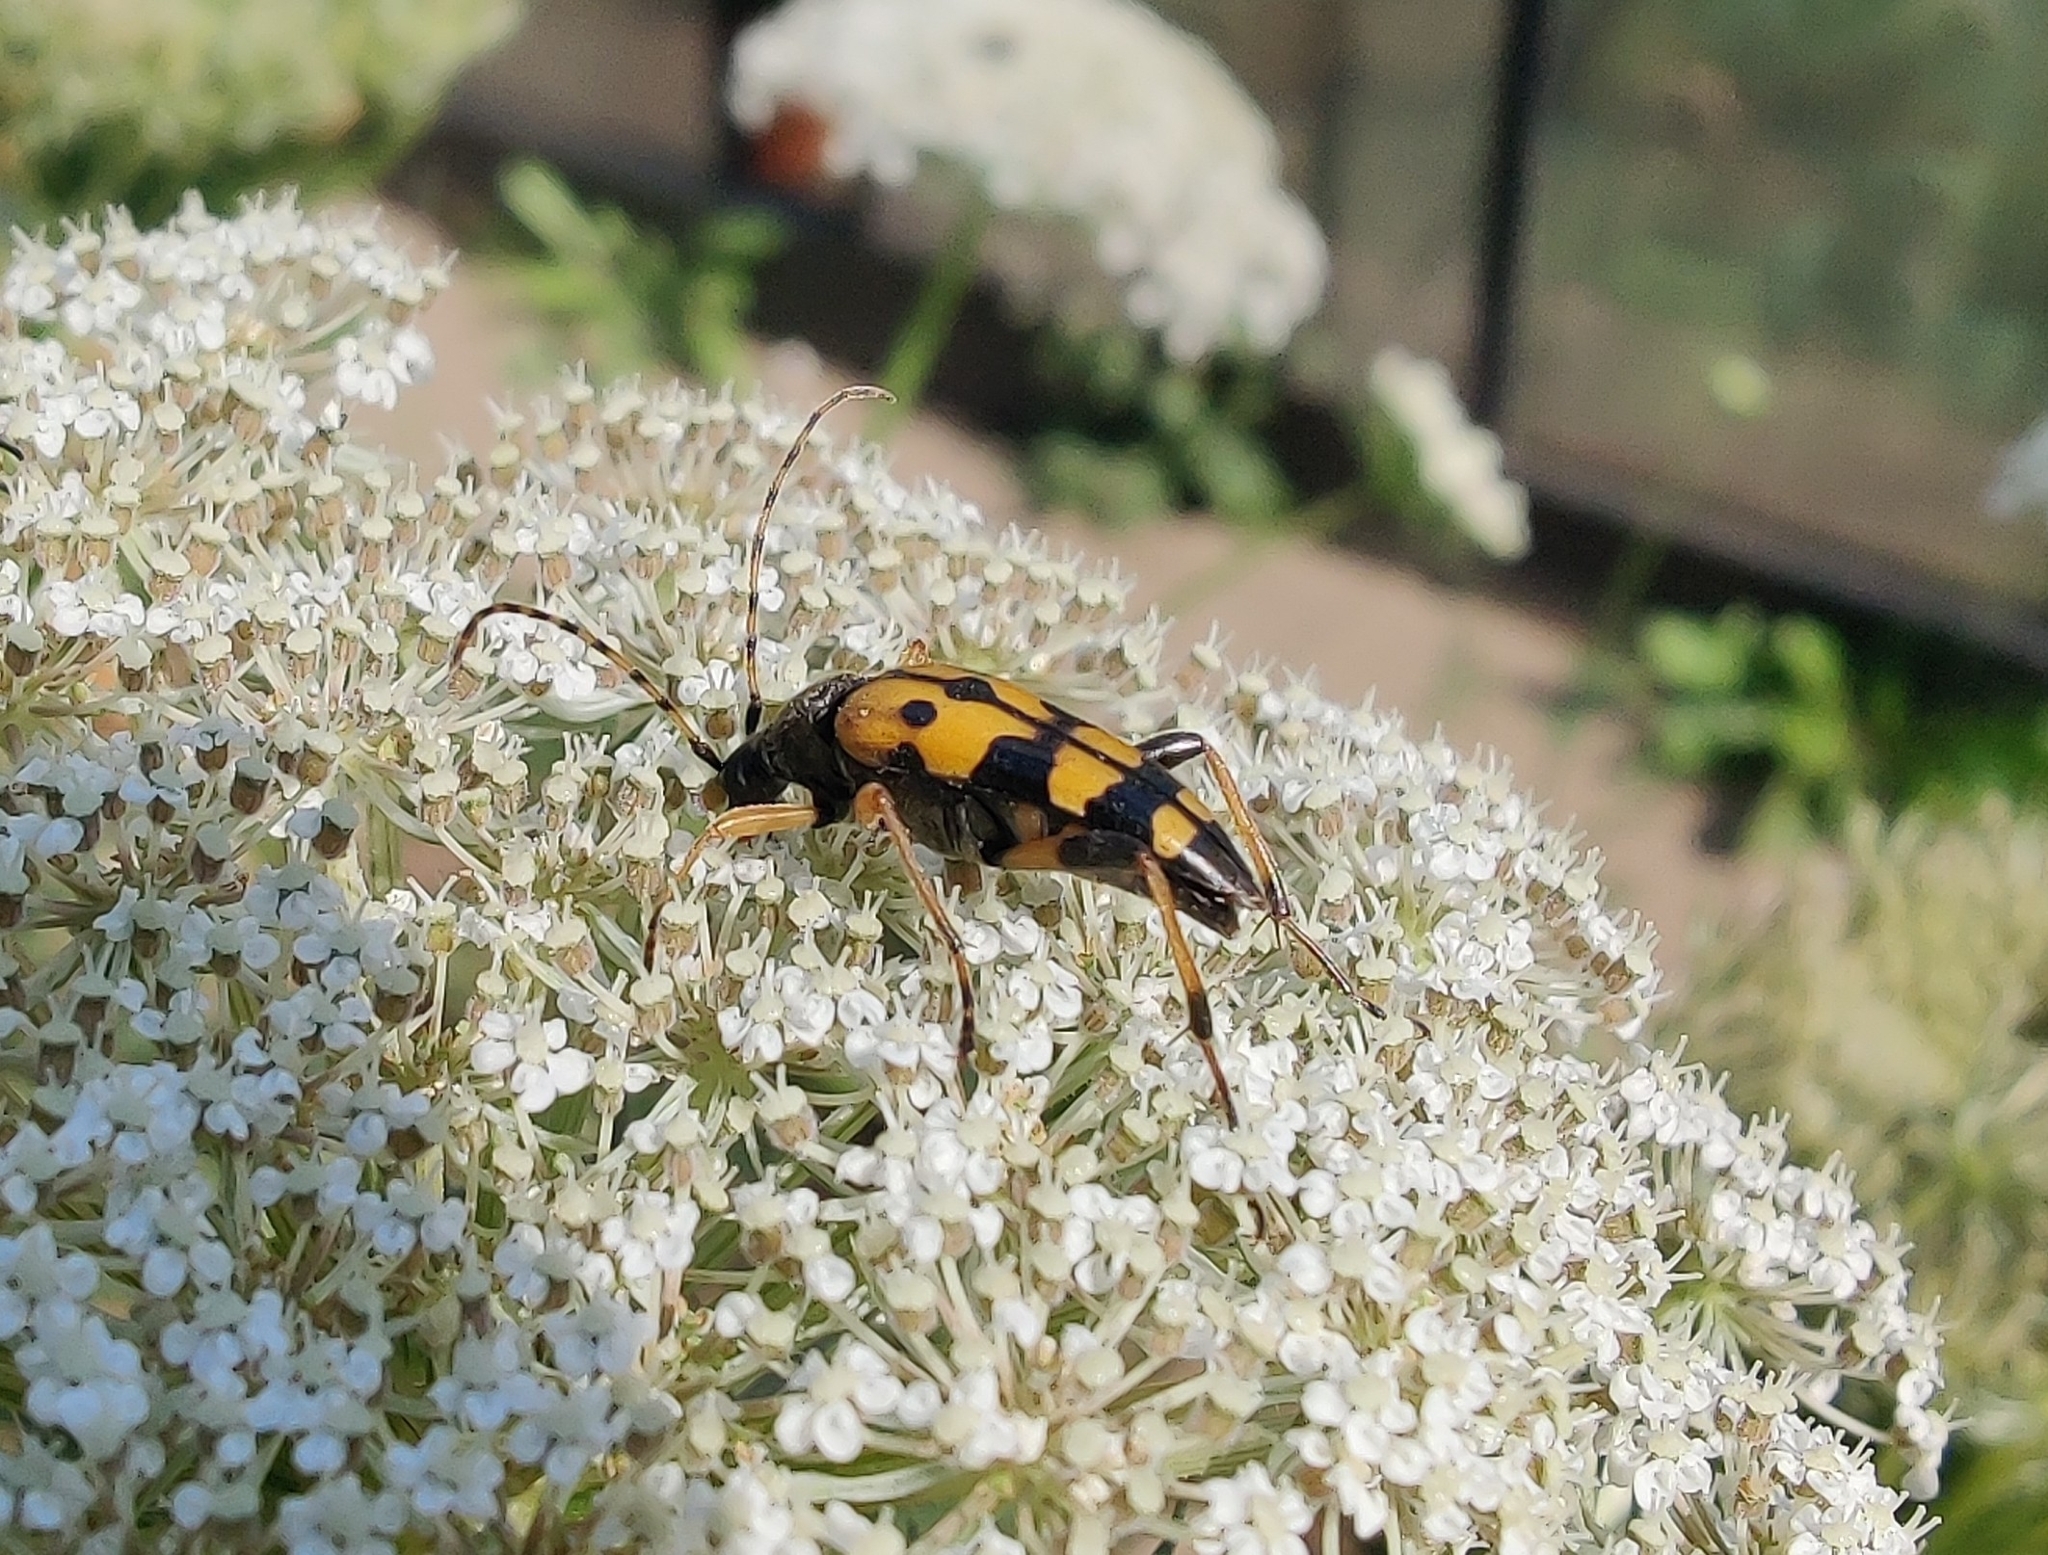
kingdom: Animalia
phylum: Arthropoda
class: Insecta
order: Coleoptera
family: Cerambycidae
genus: Rutpela
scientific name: Rutpela maculata
